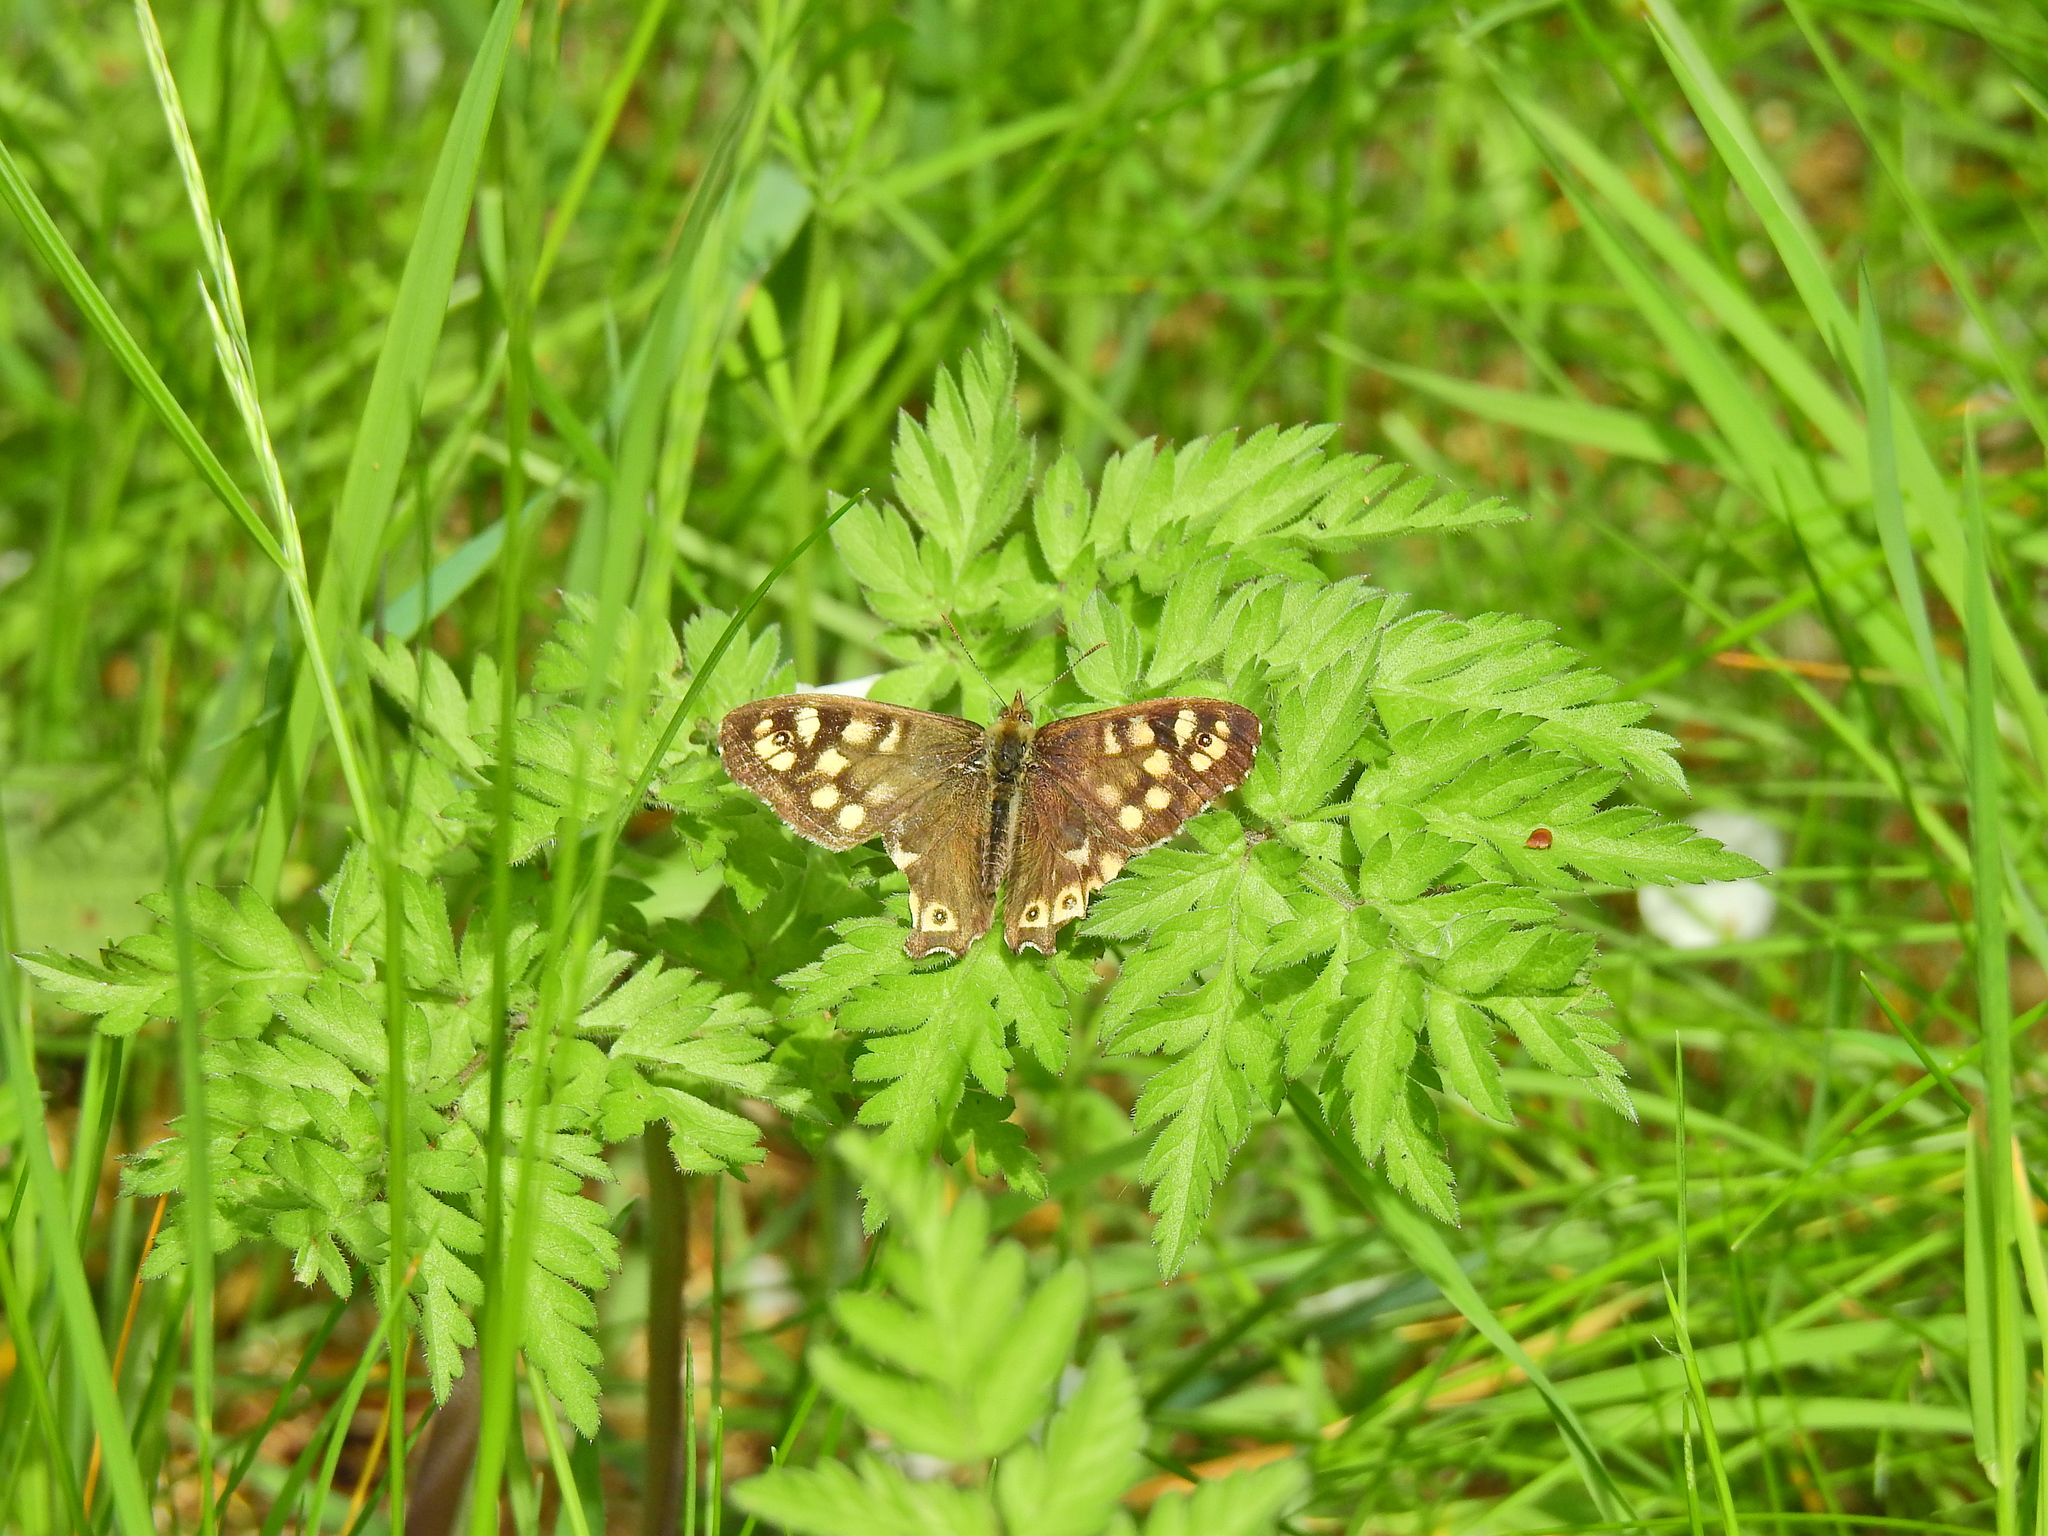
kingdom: Animalia
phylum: Arthropoda
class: Insecta
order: Lepidoptera
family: Nymphalidae
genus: Pararge
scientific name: Pararge aegeria
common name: Speckled wood
